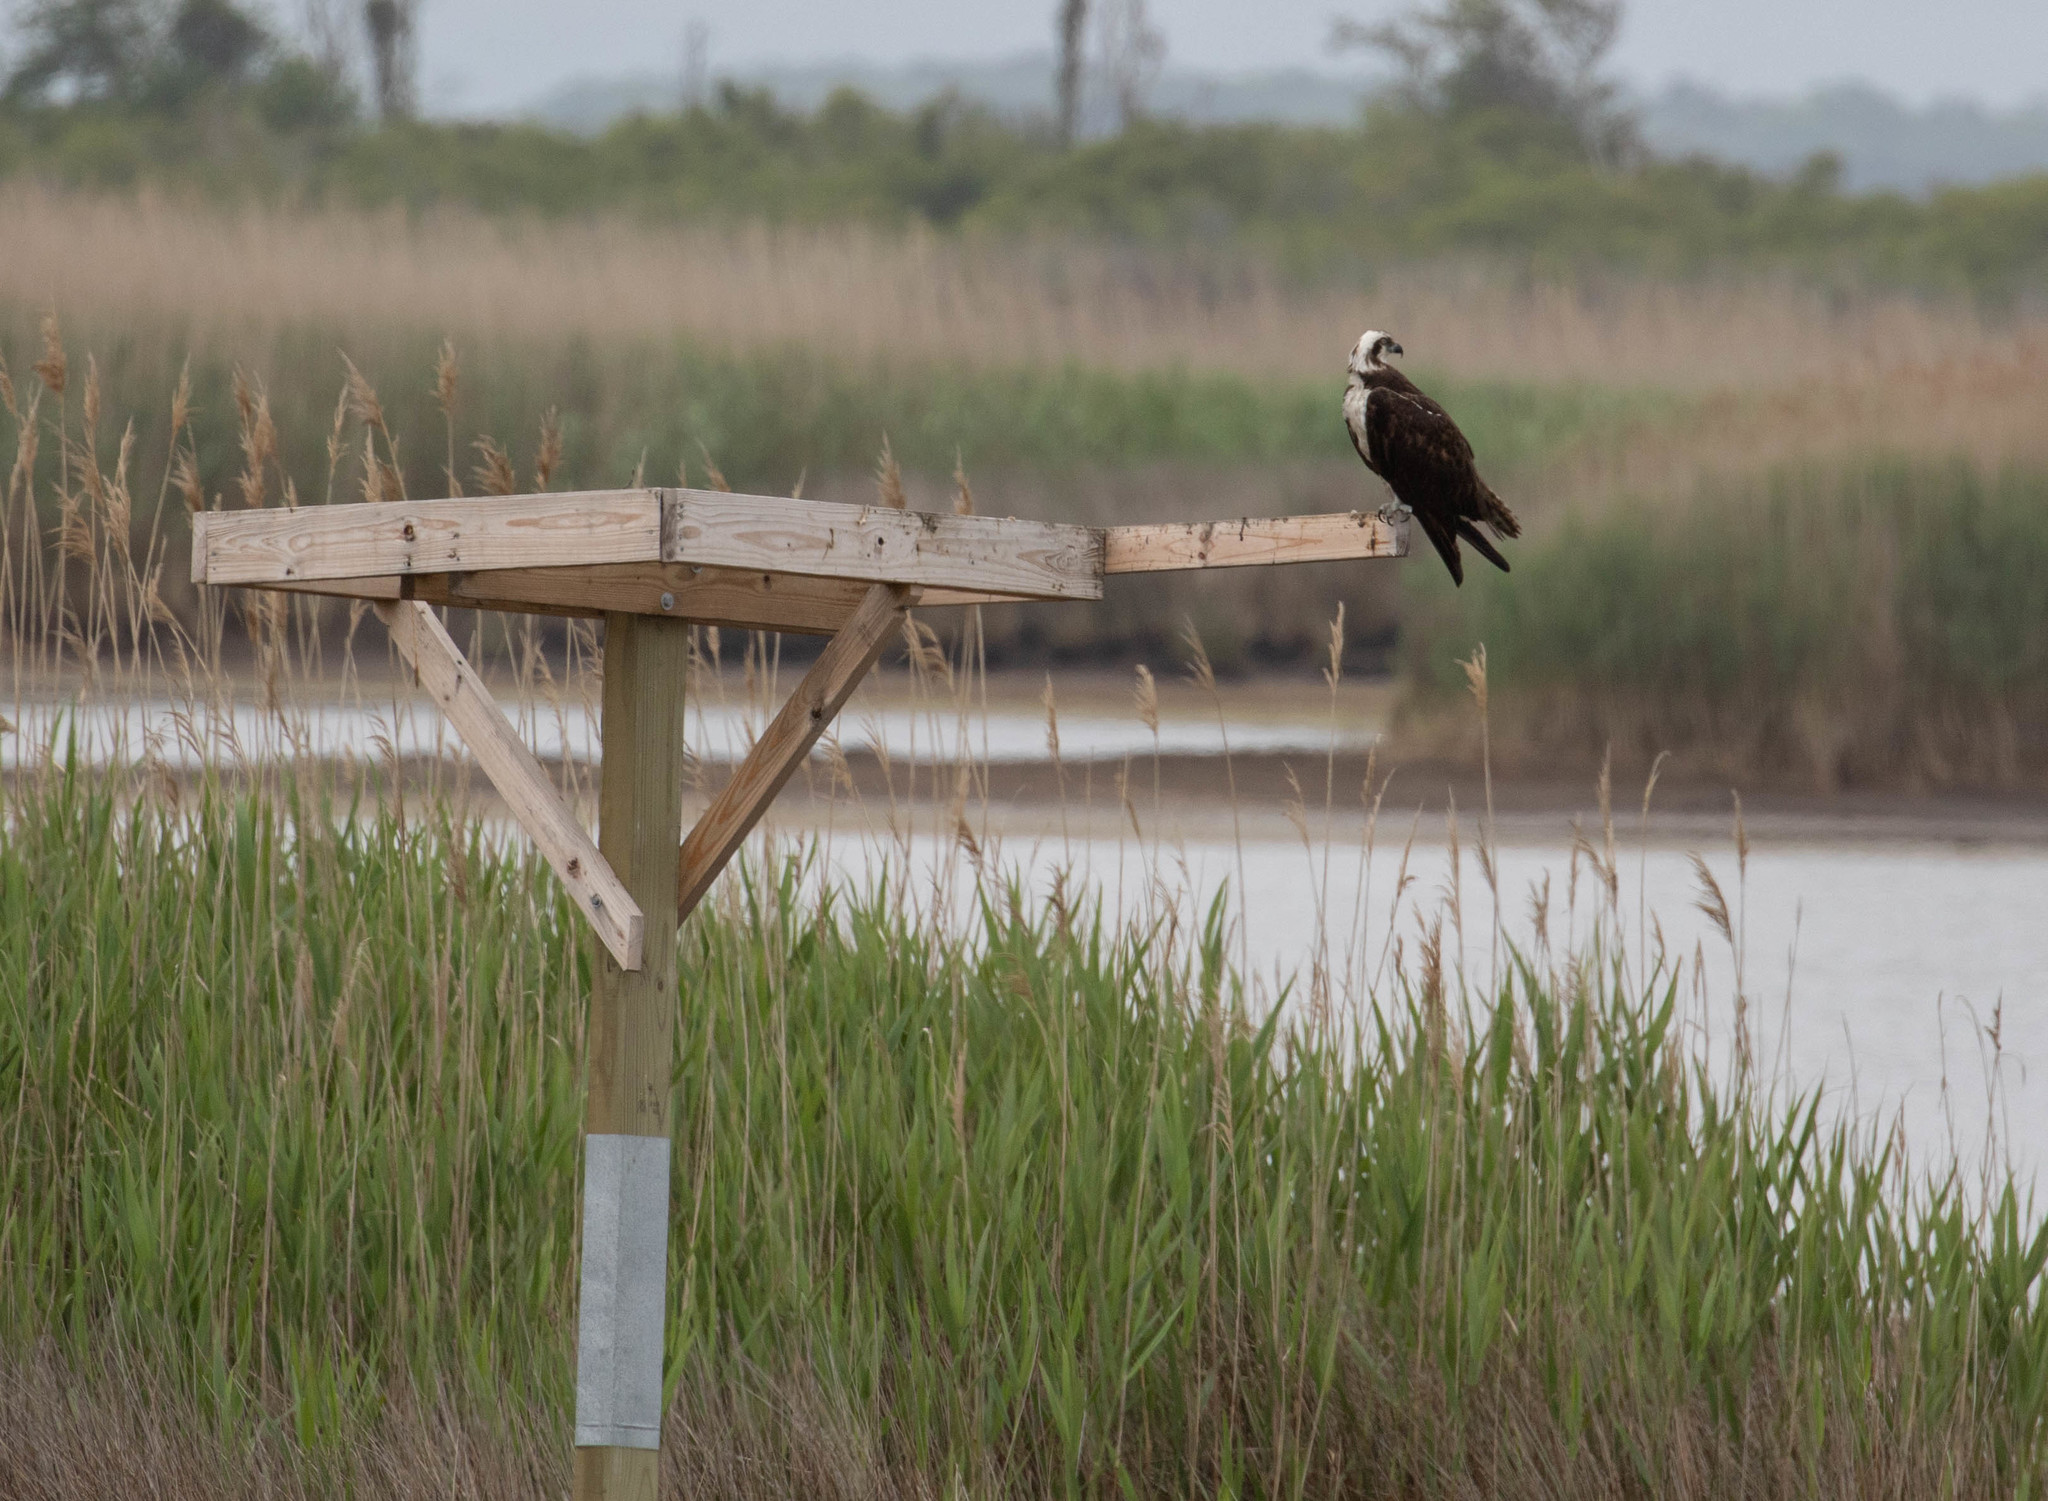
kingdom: Animalia
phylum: Chordata
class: Aves
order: Accipitriformes
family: Pandionidae
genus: Pandion
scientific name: Pandion haliaetus
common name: Osprey
